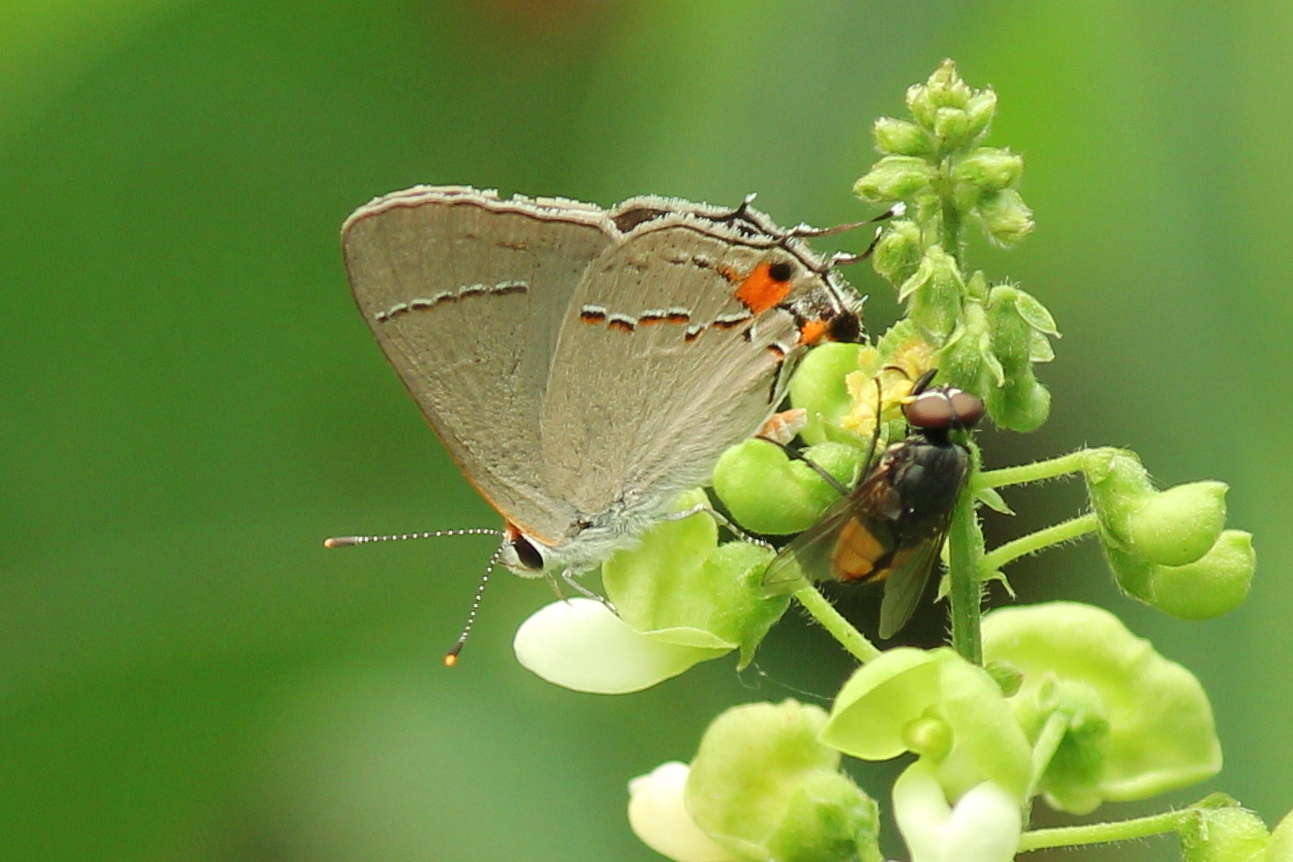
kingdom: Animalia
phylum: Arthropoda
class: Insecta
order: Lepidoptera
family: Lycaenidae
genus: Strymon
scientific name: Strymon melinus
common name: Gray hairstreak
